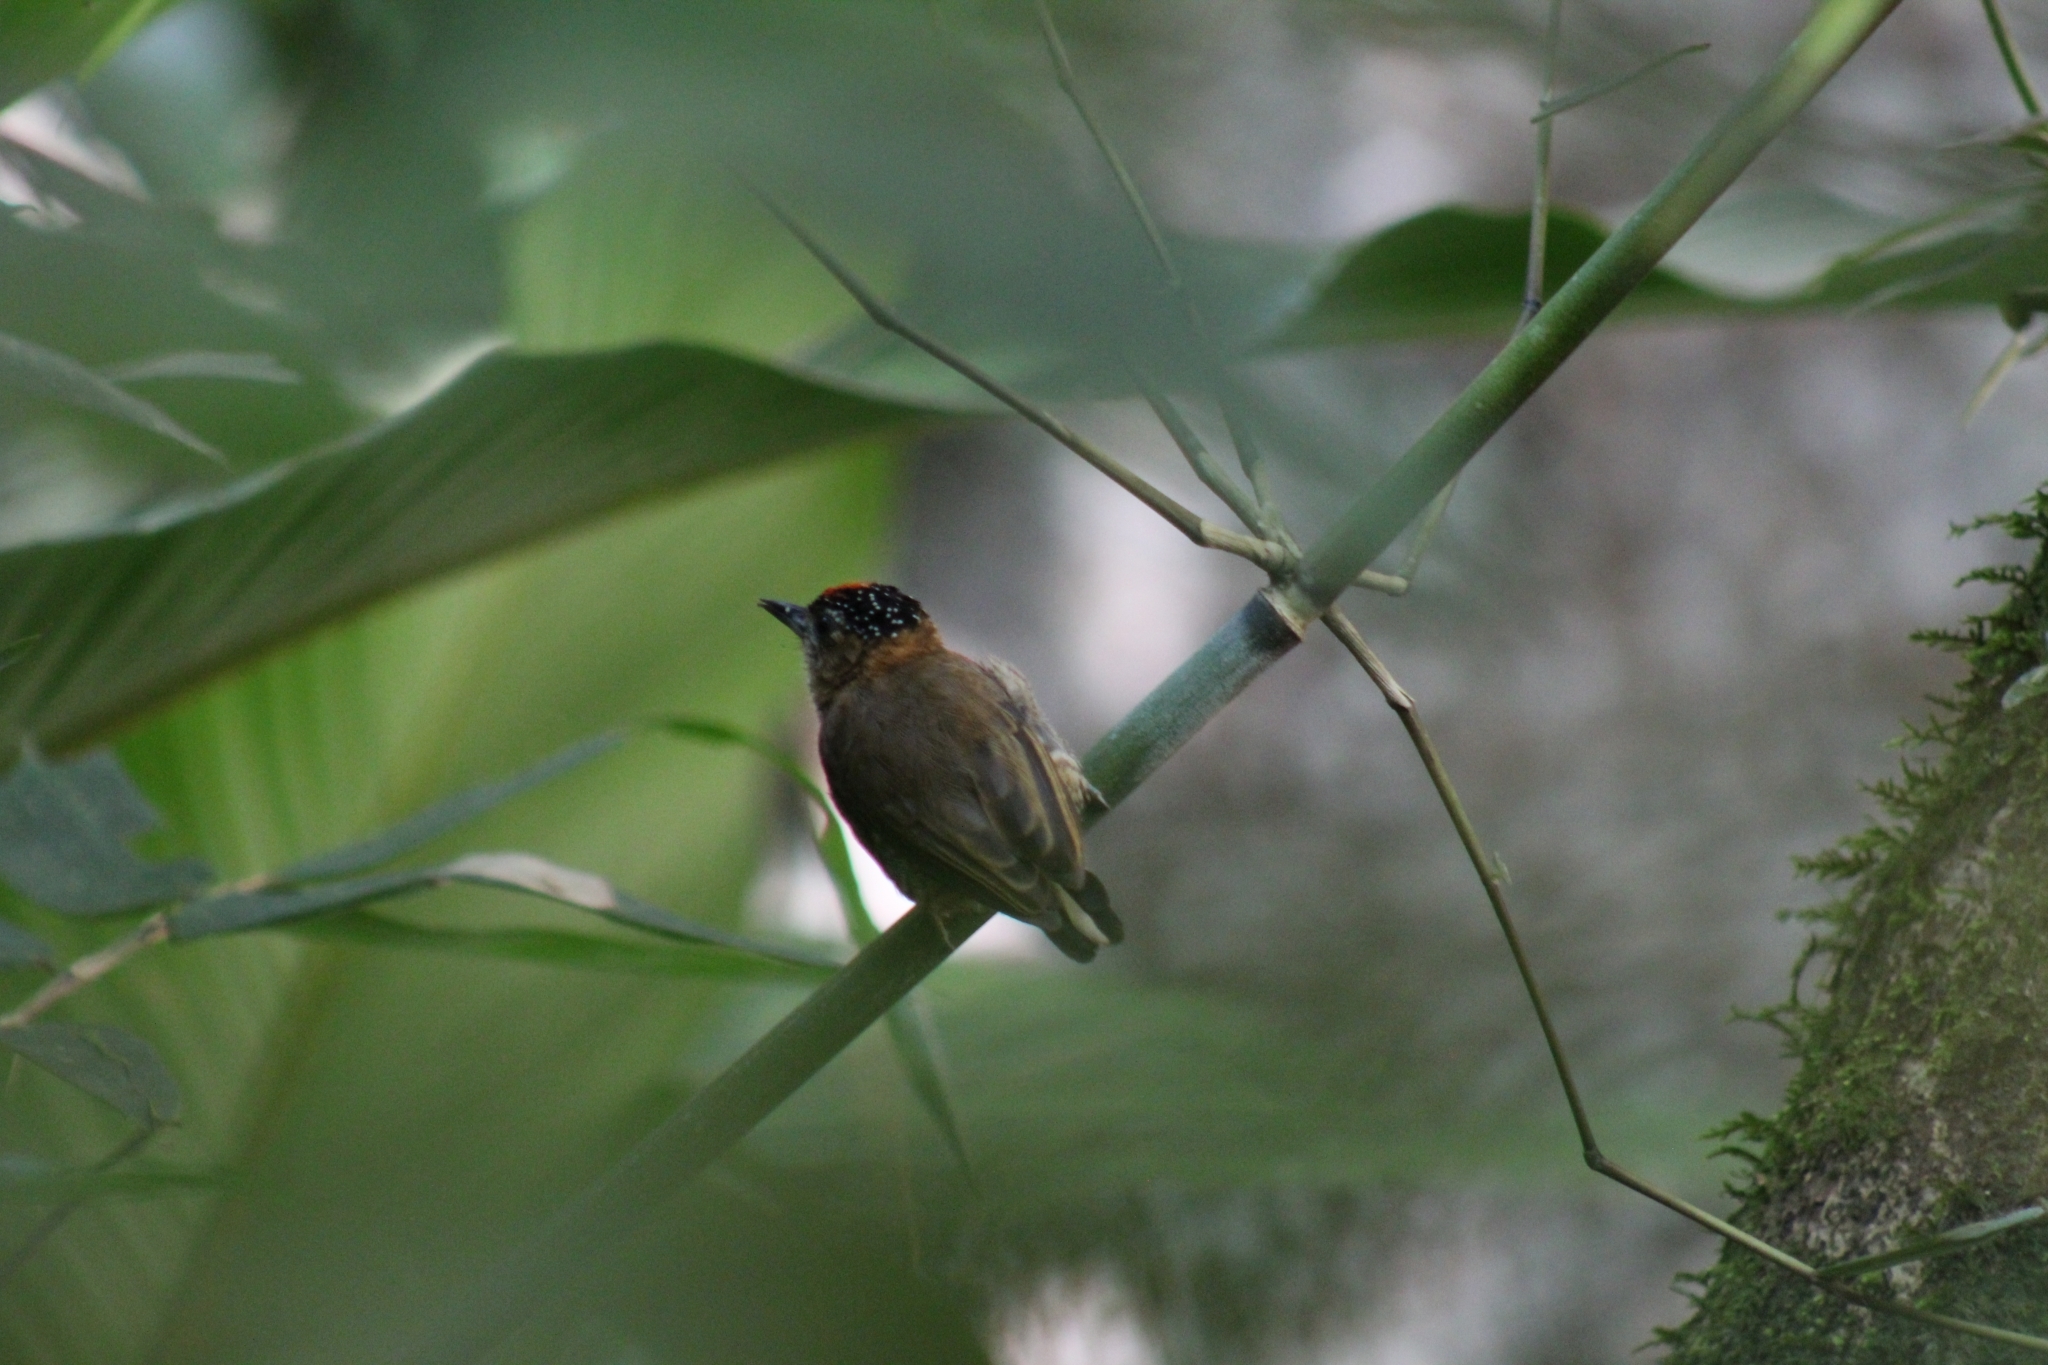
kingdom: Animalia
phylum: Chordata
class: Aves
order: Piciformes
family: Picidae
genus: Picumnus
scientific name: Picumnus nebulosus
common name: Mottled piculet
